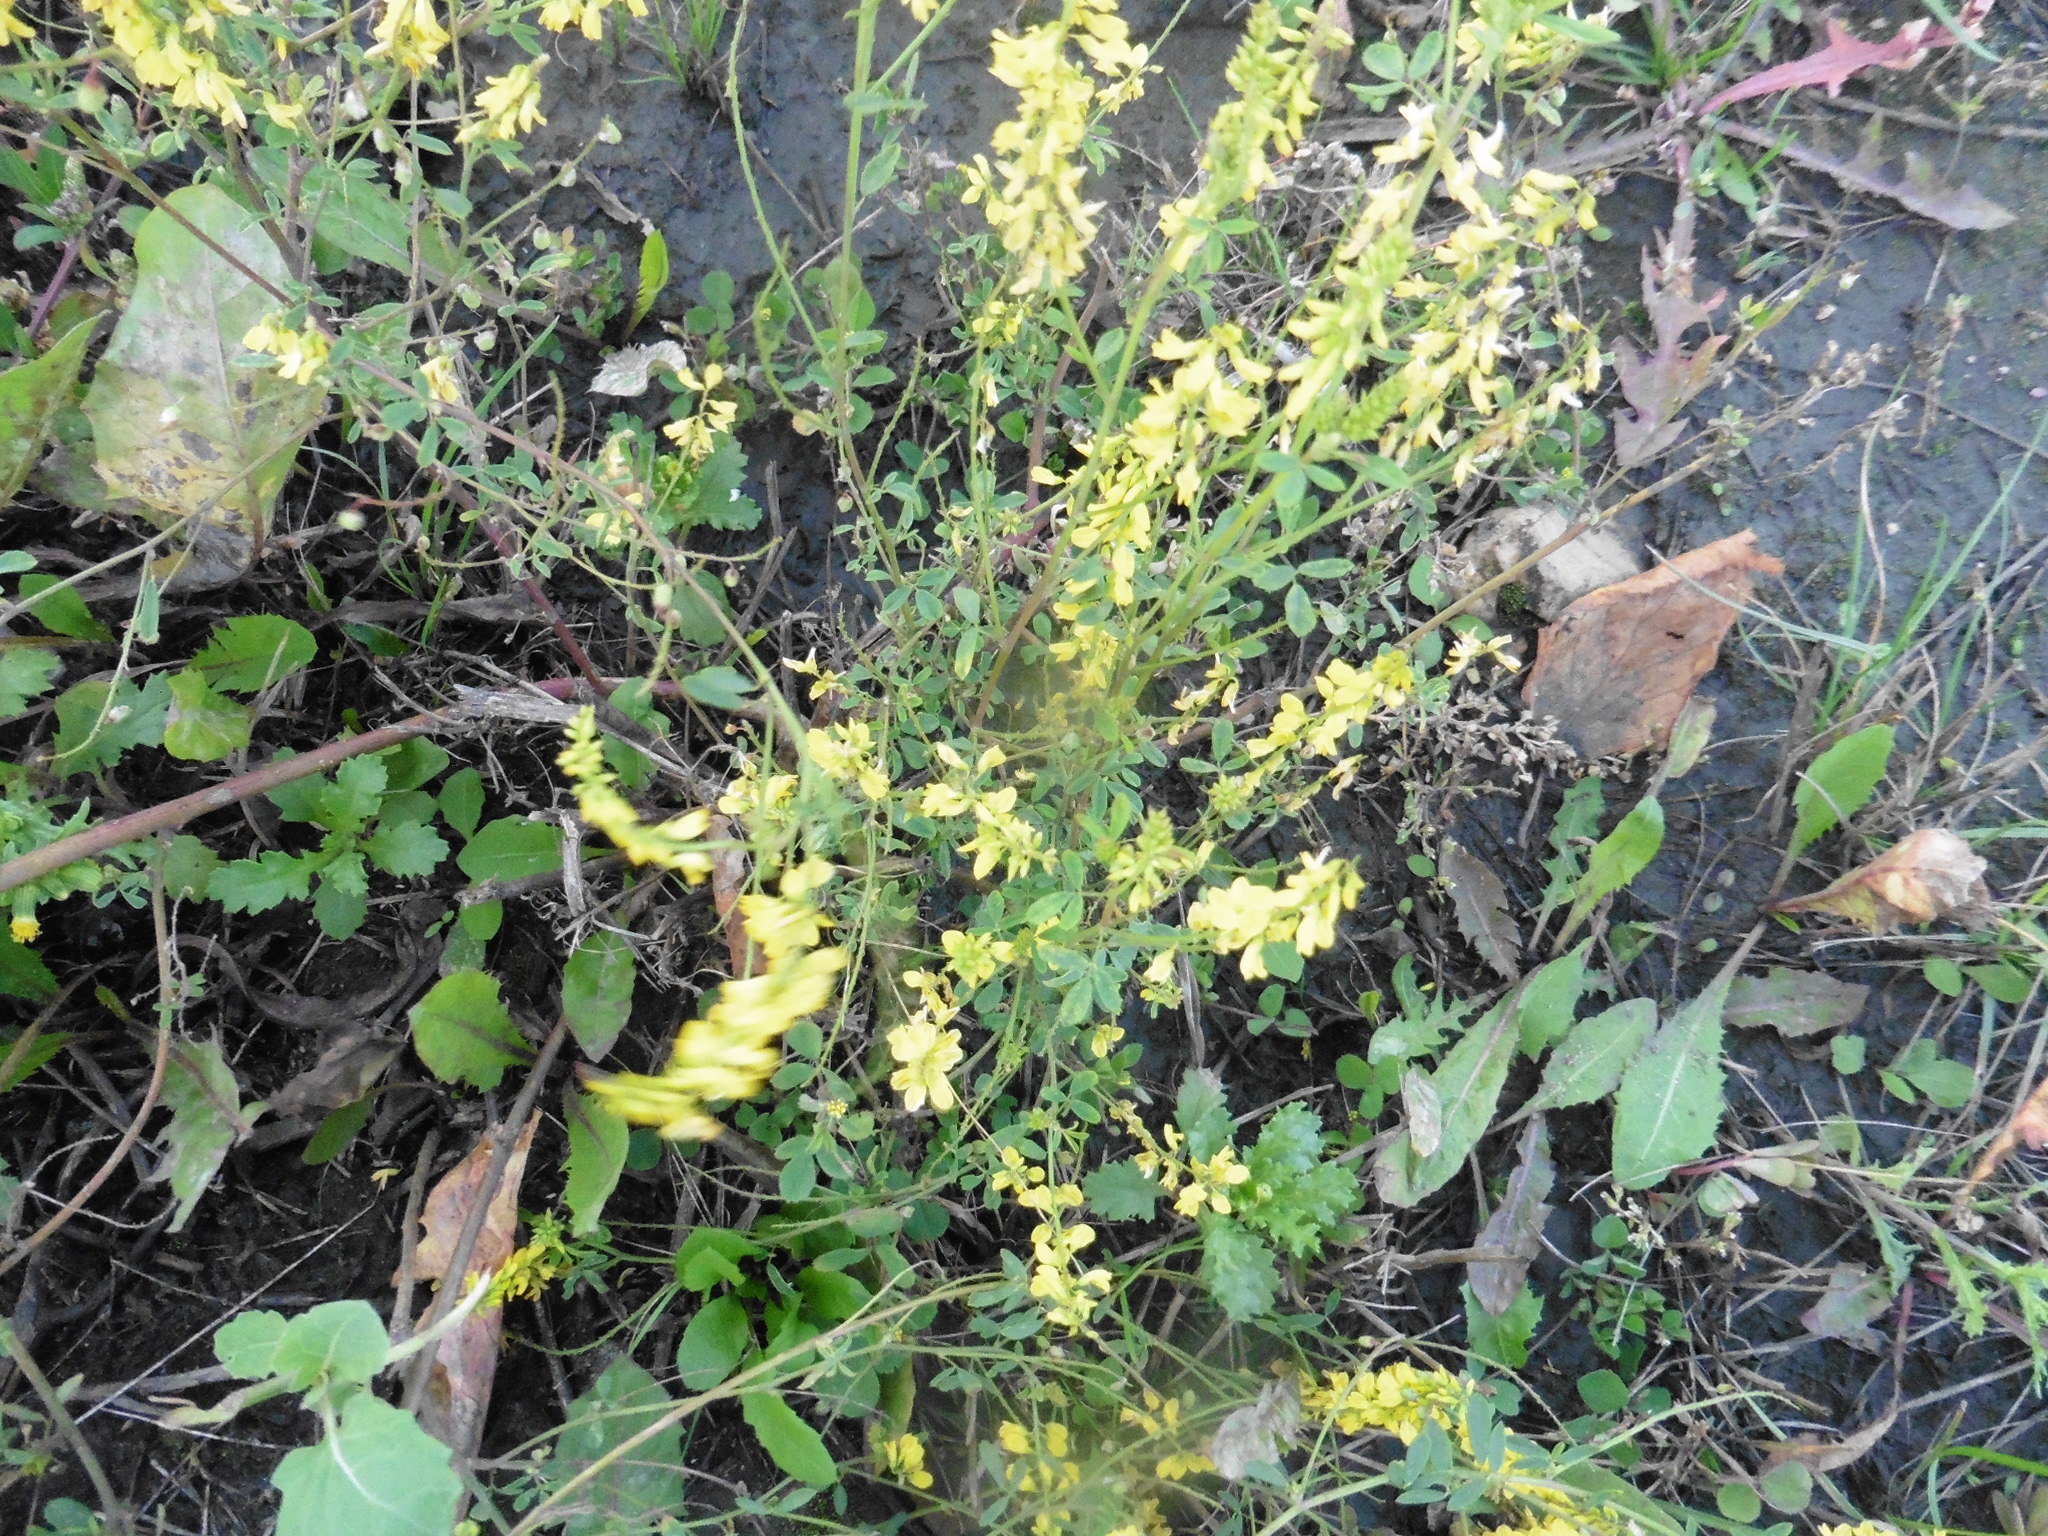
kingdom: Plantae
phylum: Tracheophyta
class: Magnoliopsida
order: Fabales
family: Fabaceae
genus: Melilotus
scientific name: Melilotus officinalis
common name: Sweetclover
